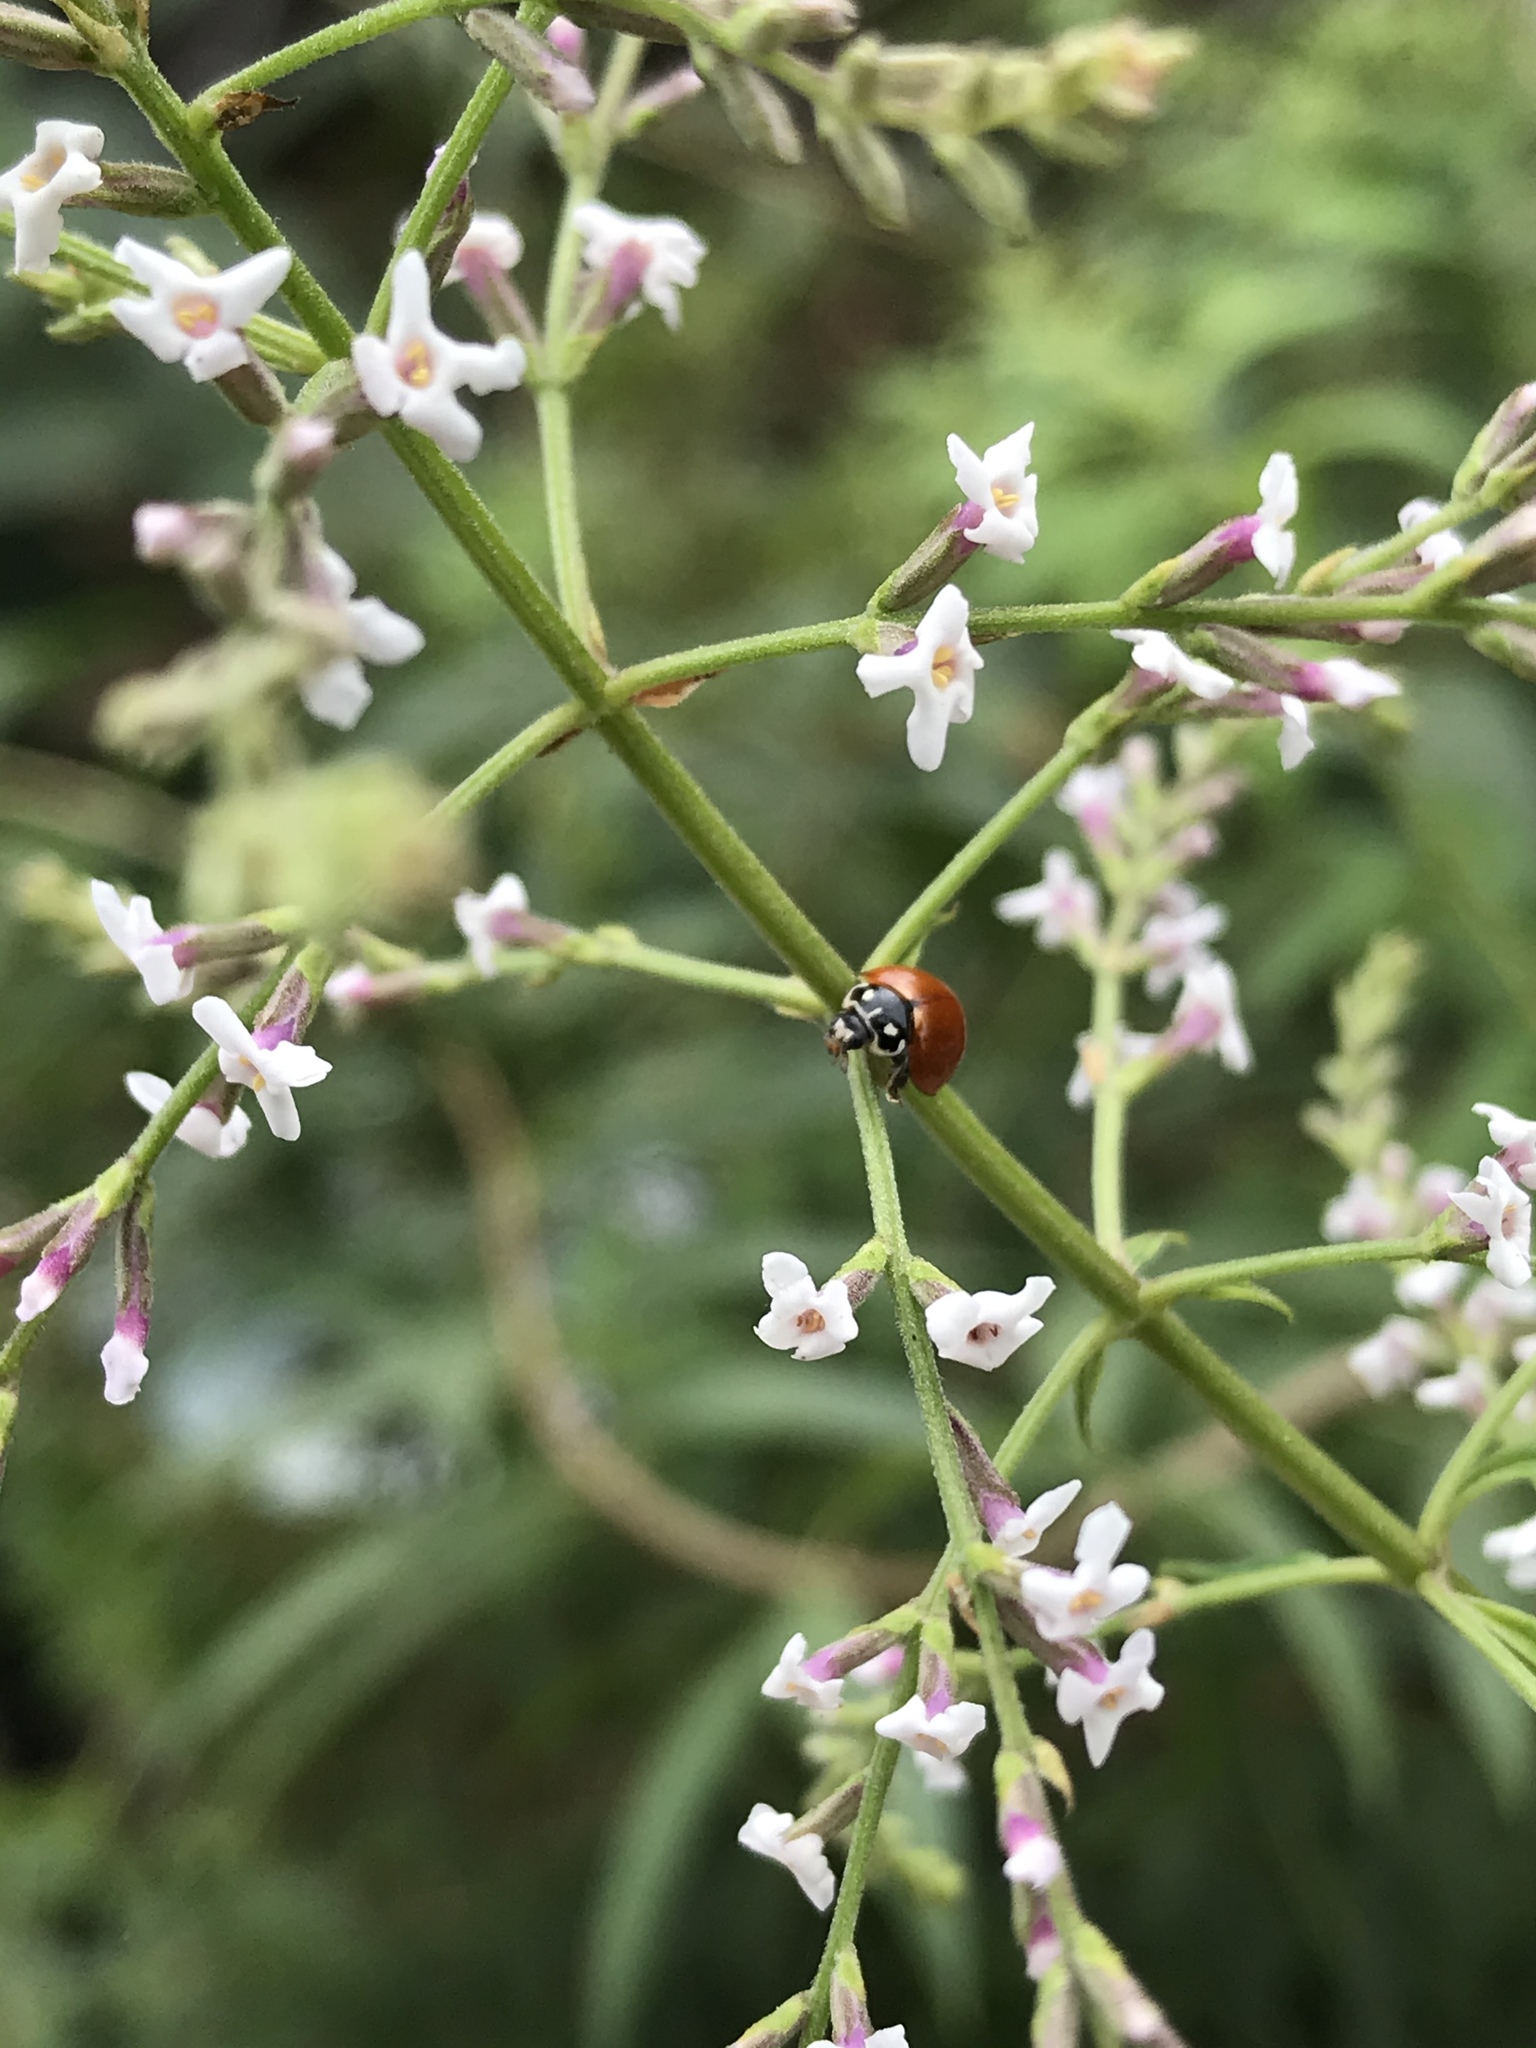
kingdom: Animalia
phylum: Arthropoda
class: Insecta
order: Coleoptera
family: Coccinellidae
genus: Cycloneda
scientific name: Cycloneda sanguinea
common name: Ladybird beetle
